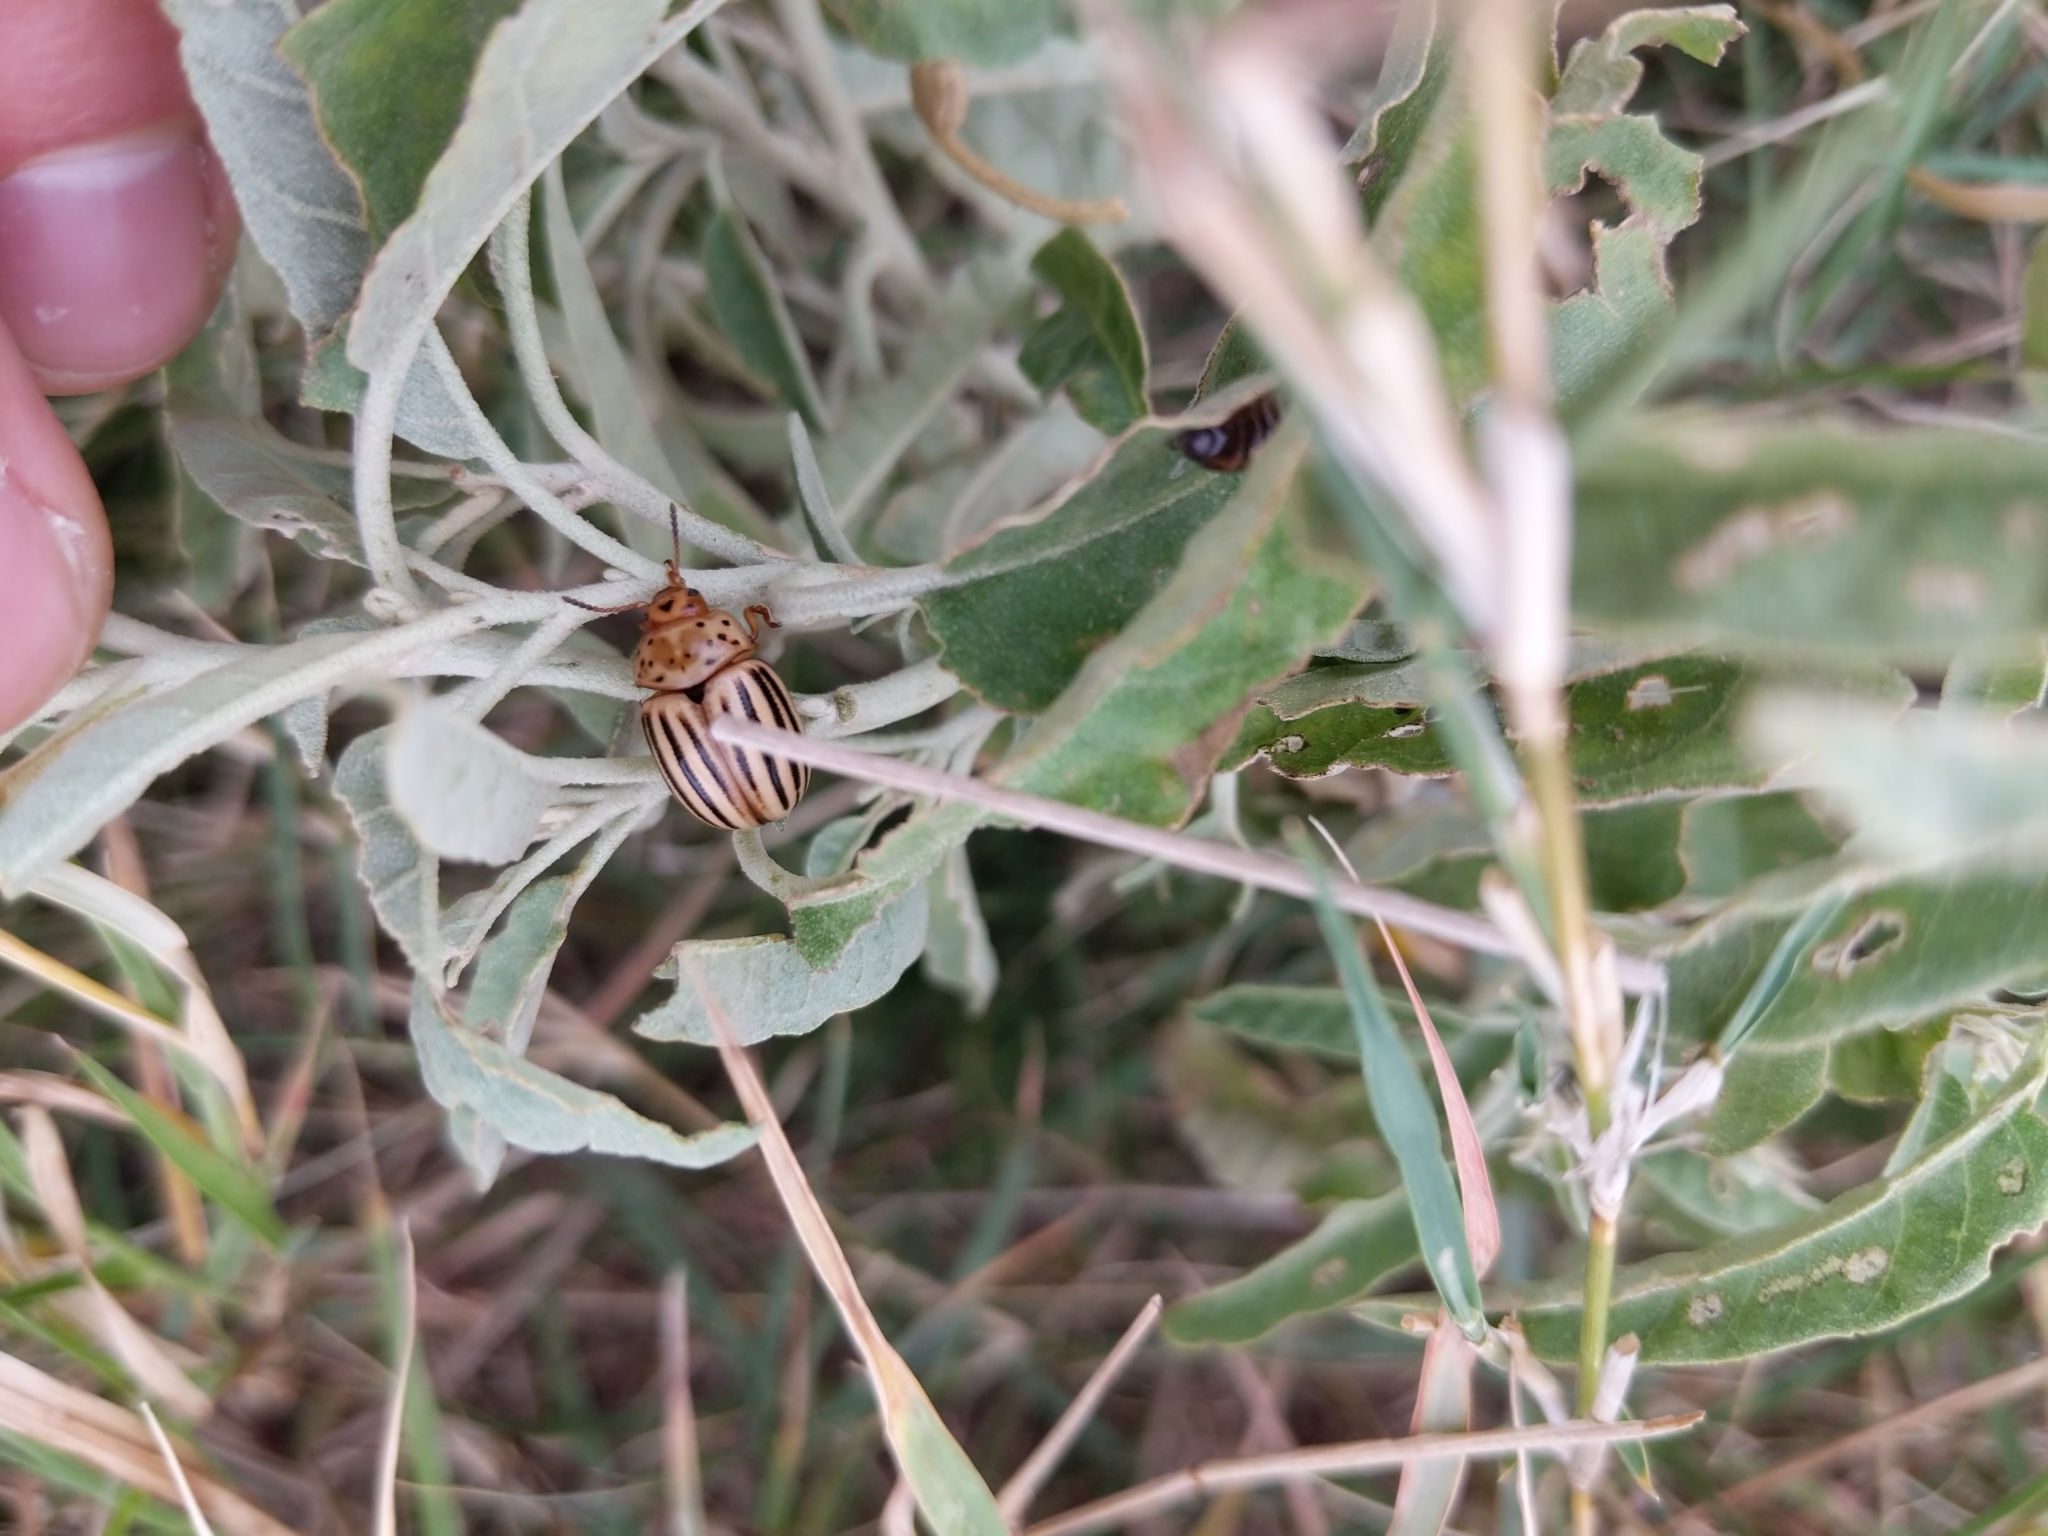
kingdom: Animalia
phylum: Arthropoda
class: Insecta
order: Coleoptera
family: Chrysomelidae
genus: Leptinotarsa
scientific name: Leptinotarsa texana
